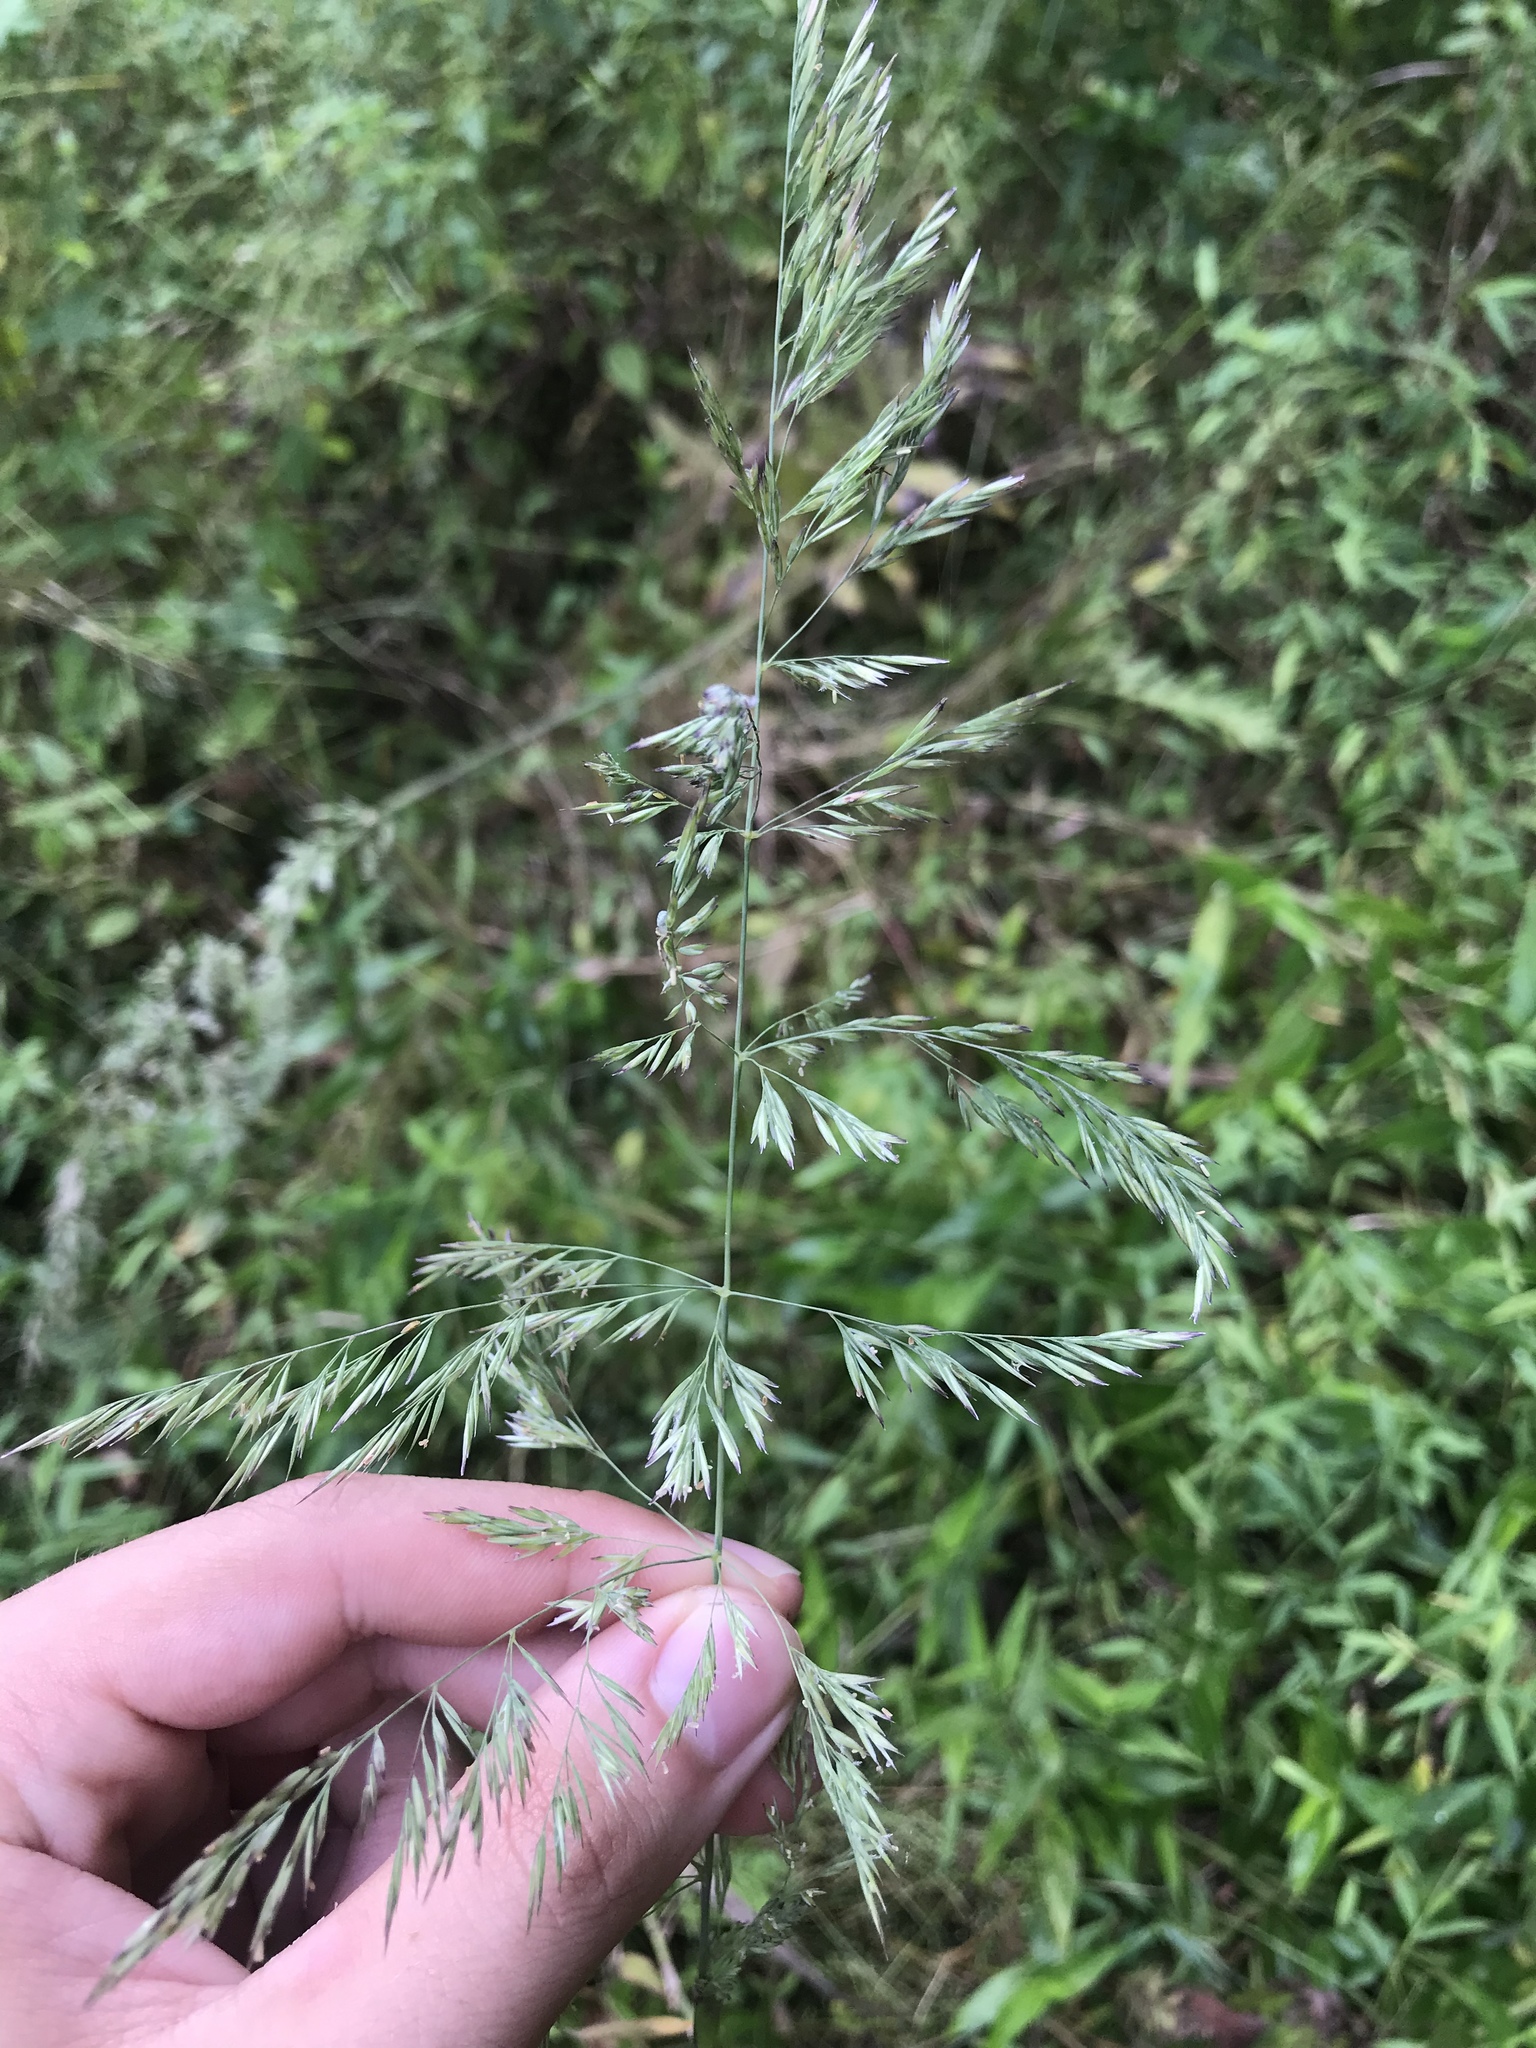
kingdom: Plantae
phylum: Tracheophyta
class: Liliopsida
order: Poales
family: Poaceae
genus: Cinna
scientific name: Cinna arundinacea
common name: Stout woodreed
